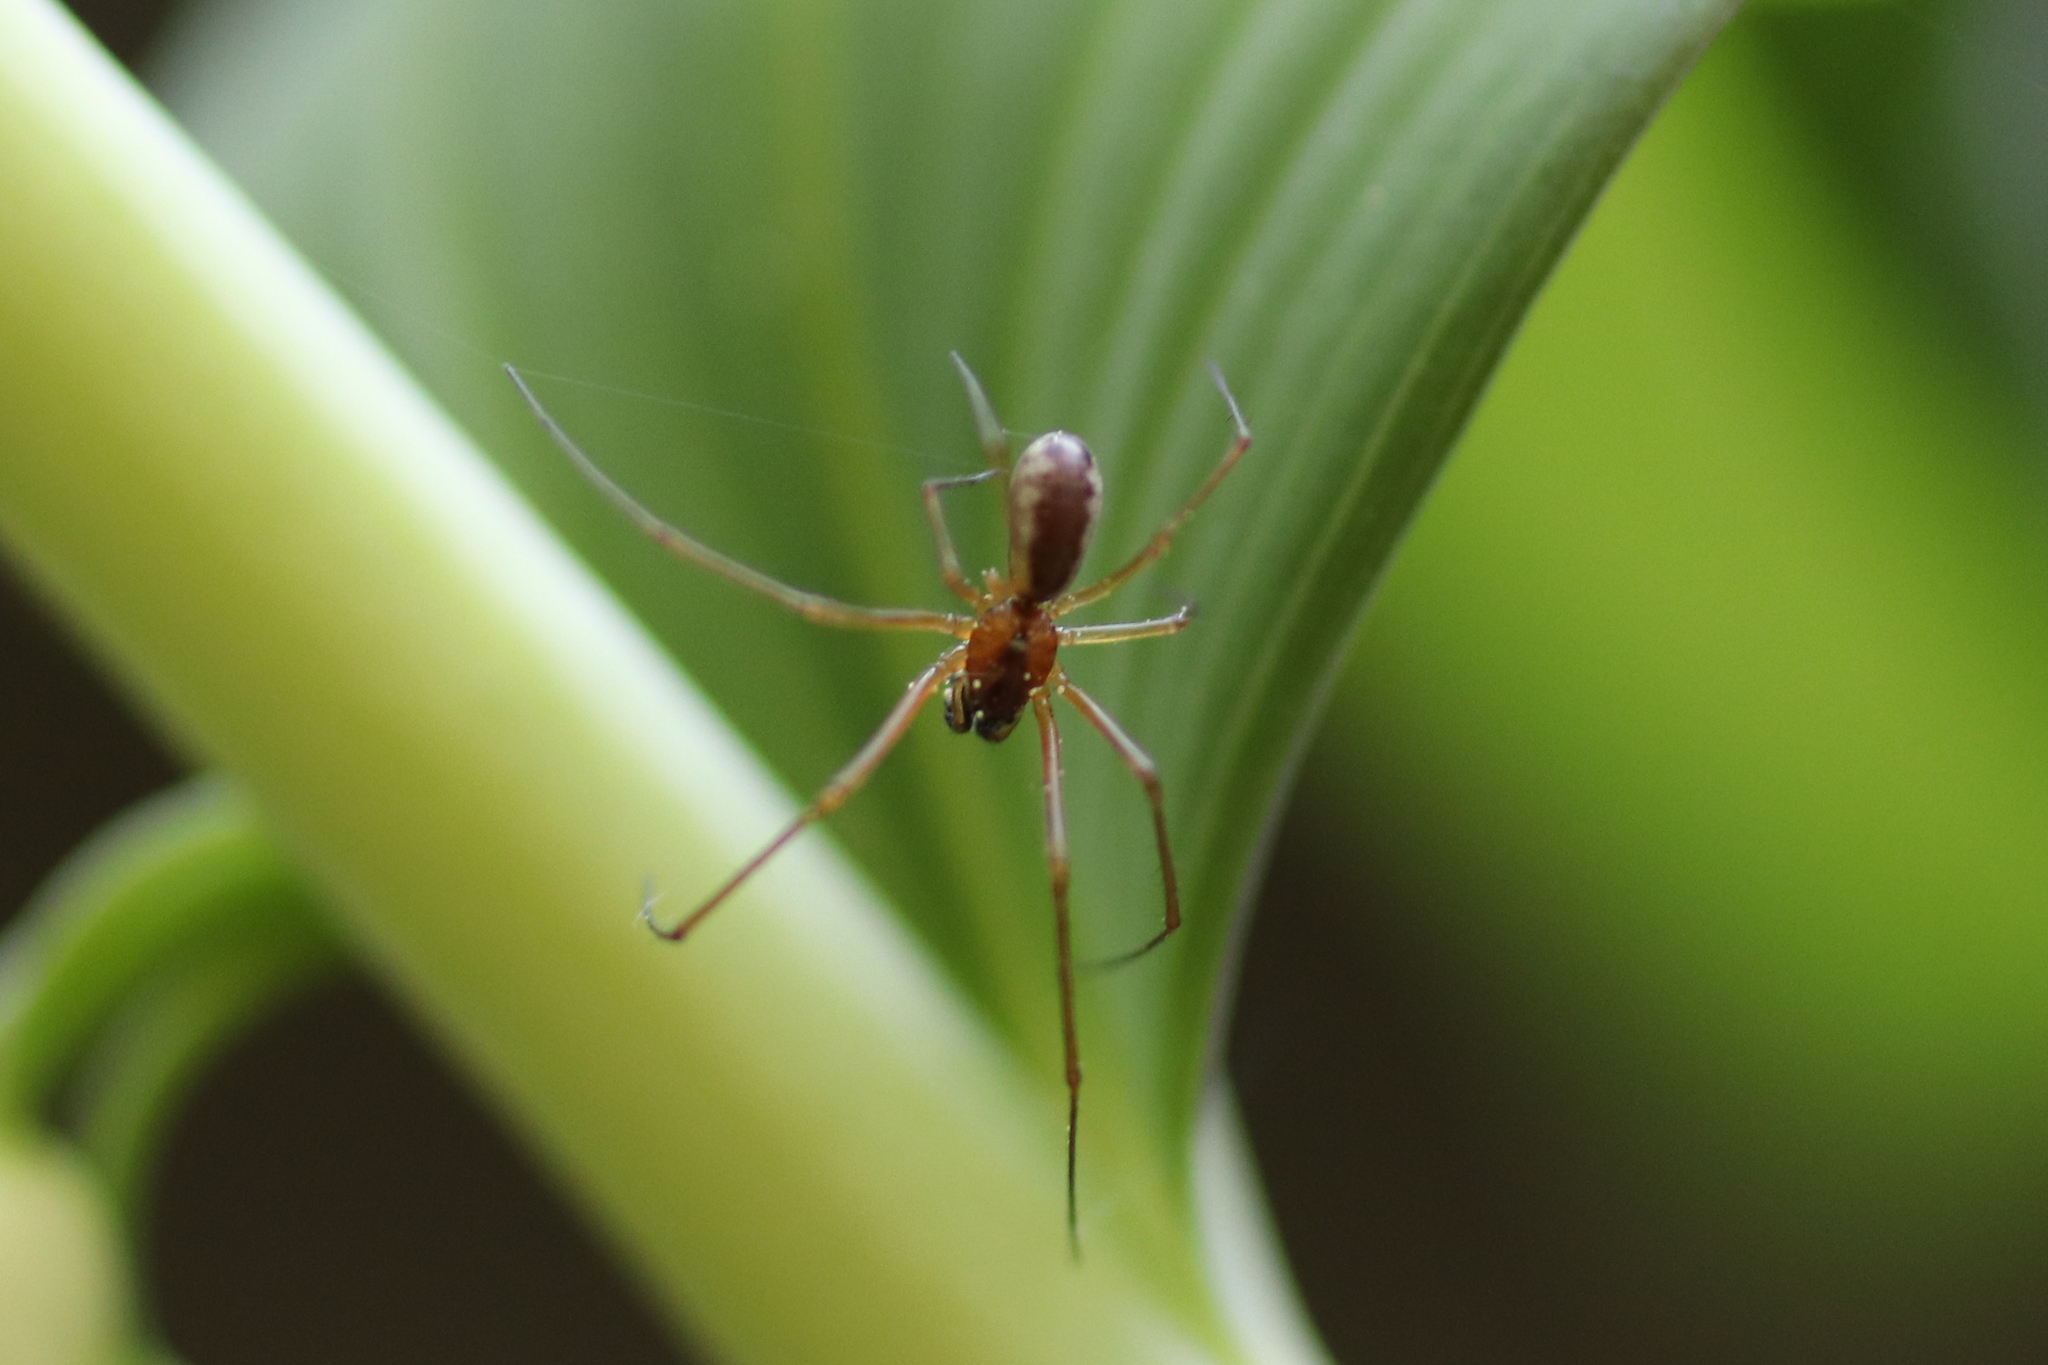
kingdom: Animalia
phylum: Arthropoda
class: Arachnida
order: Araneae
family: Linyphiidae
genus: Neriene
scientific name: Neriene peltata
